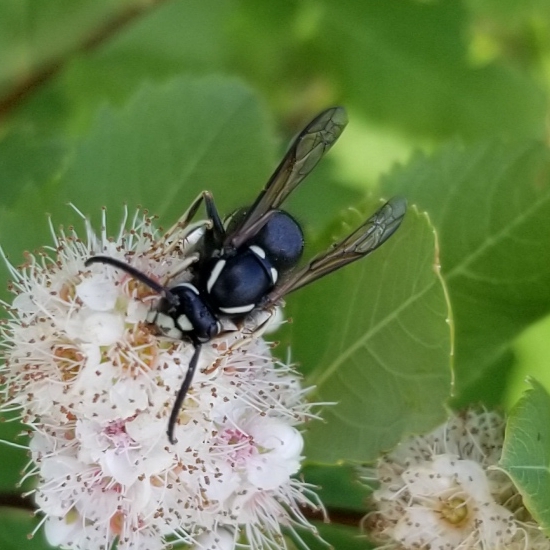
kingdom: Animalia
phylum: Arthropoda
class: Insecta
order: Hymenoptera
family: Vespidae
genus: Vespula
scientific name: Vespula consobrina
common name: Blackjacket
